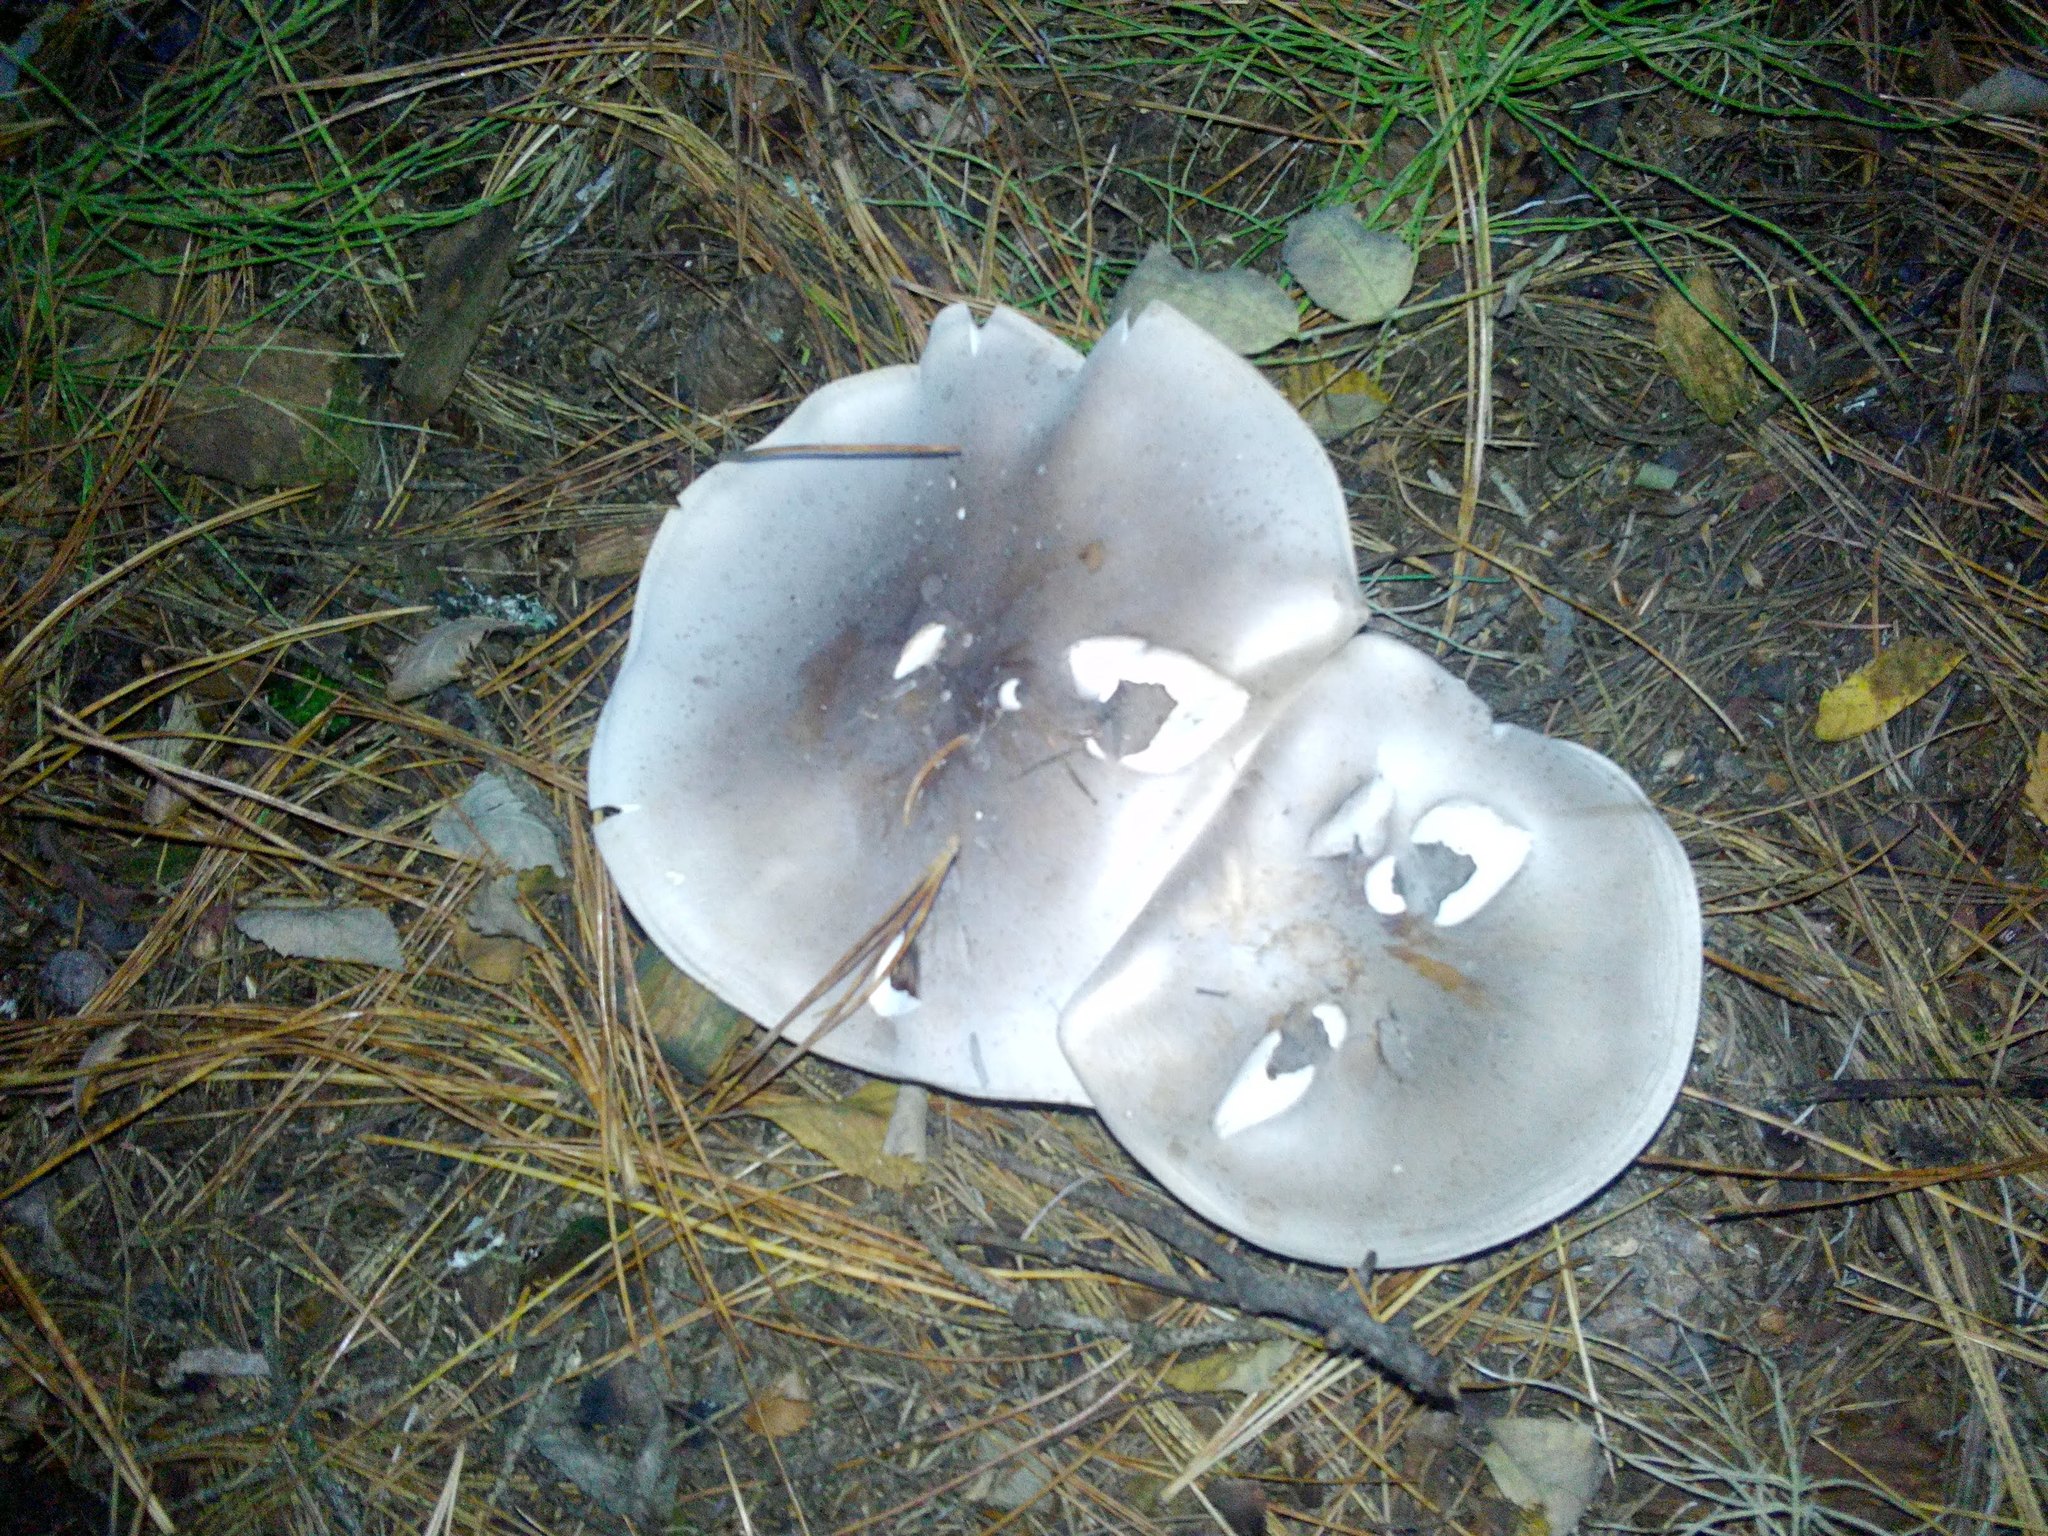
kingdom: Fungi
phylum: Basidiomycota
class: Agaricomycetes
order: Agaricales
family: Tricholomataceae
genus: Clitocybe
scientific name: Clitocybe nebularis
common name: Clouded agaric
